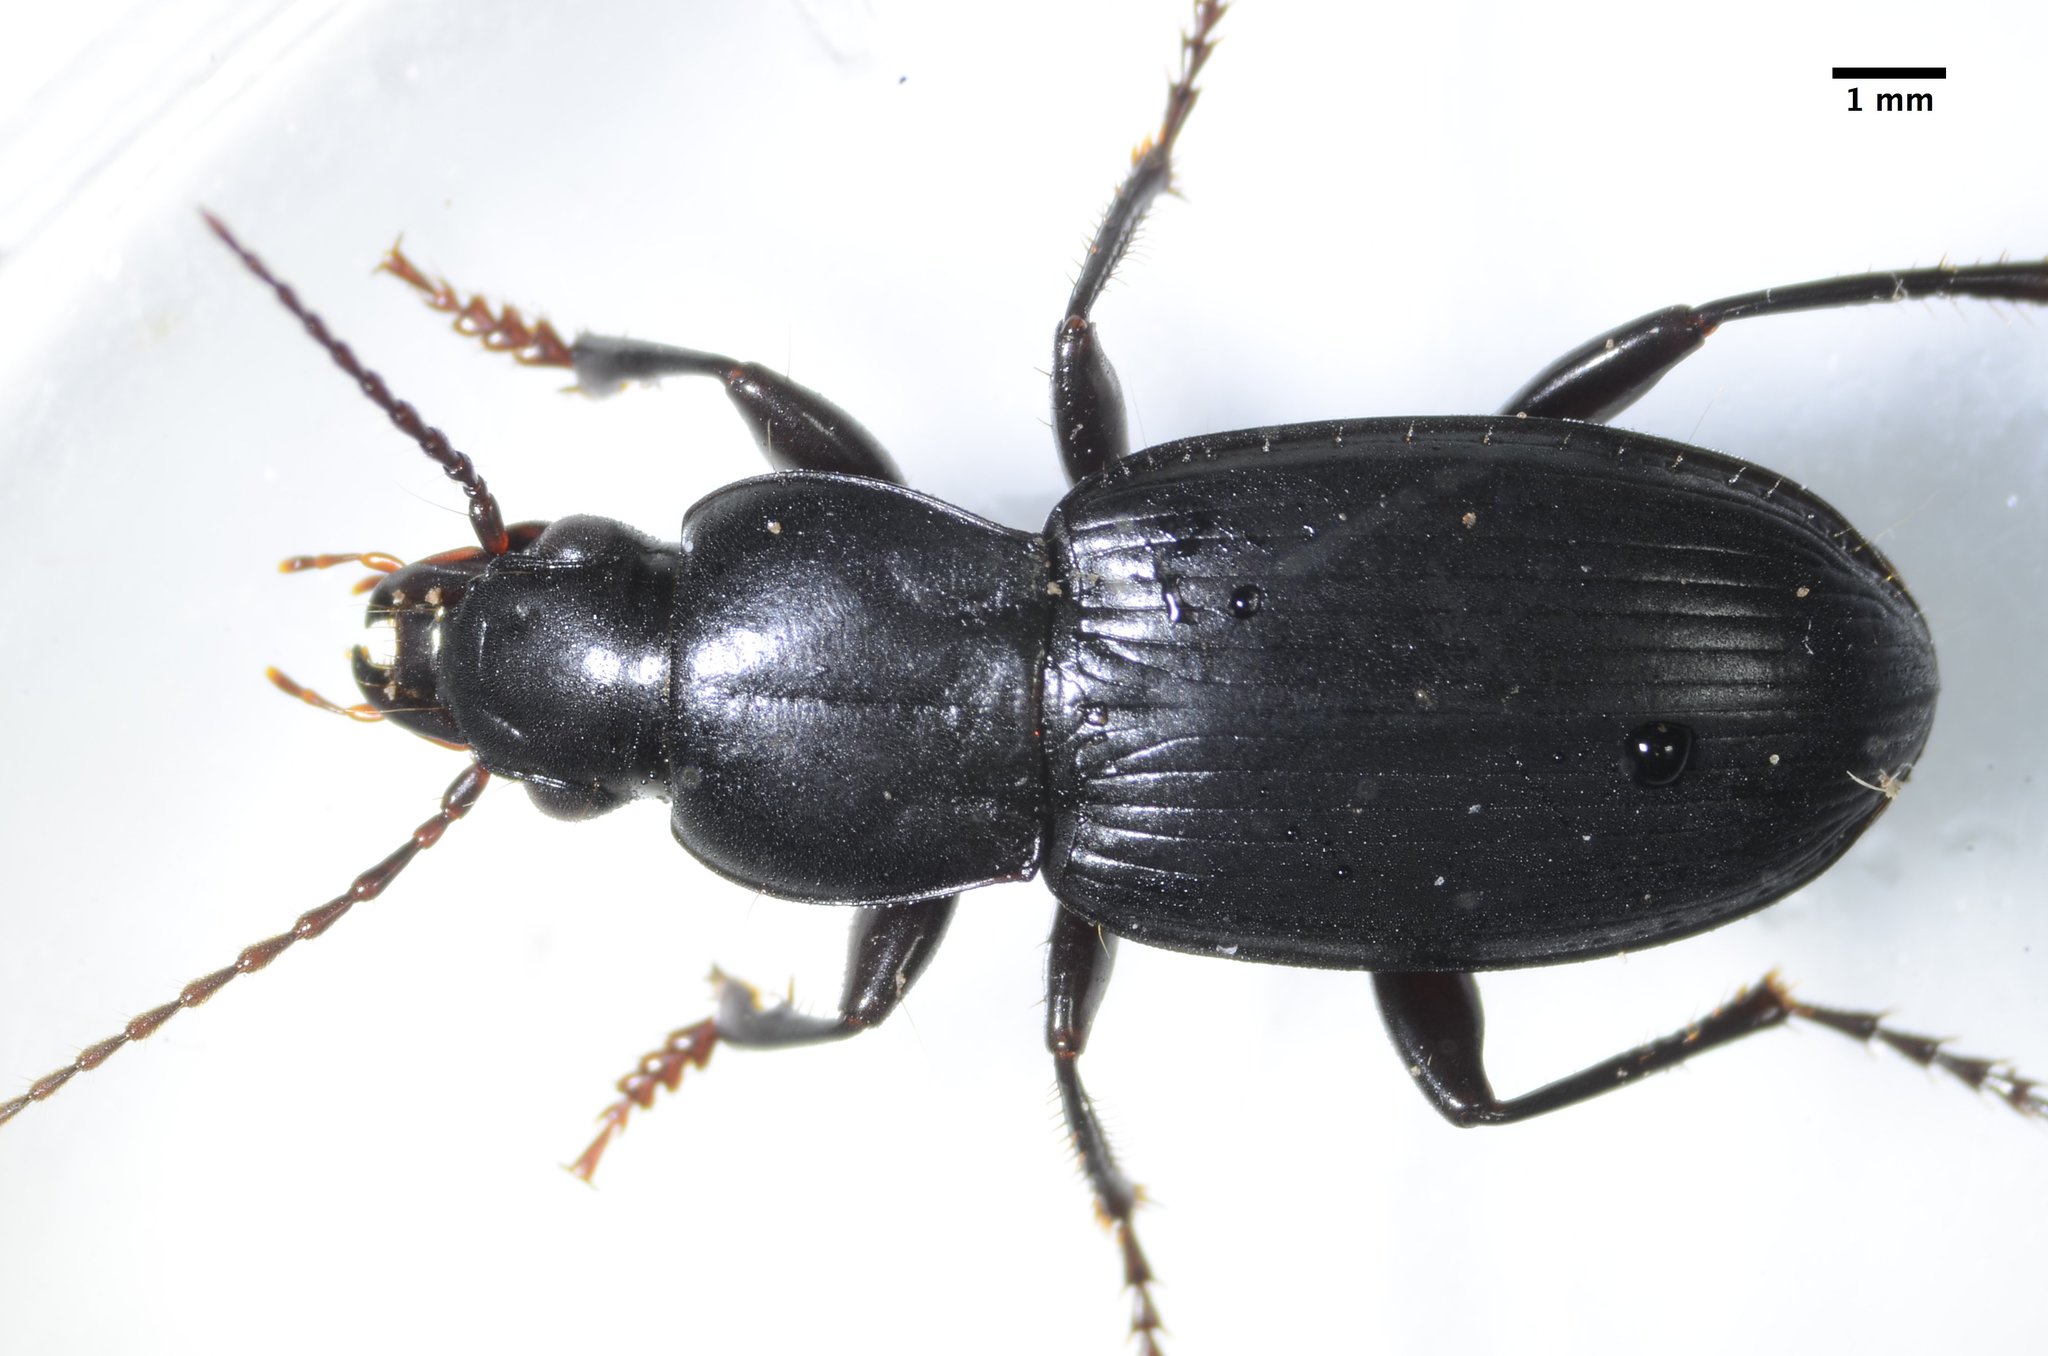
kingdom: Animalia
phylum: Arthropoda
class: Insecta
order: Coleoptera
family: Carabidae
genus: Pterostichus
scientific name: Pterostichus californicus
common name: Ground beetle
